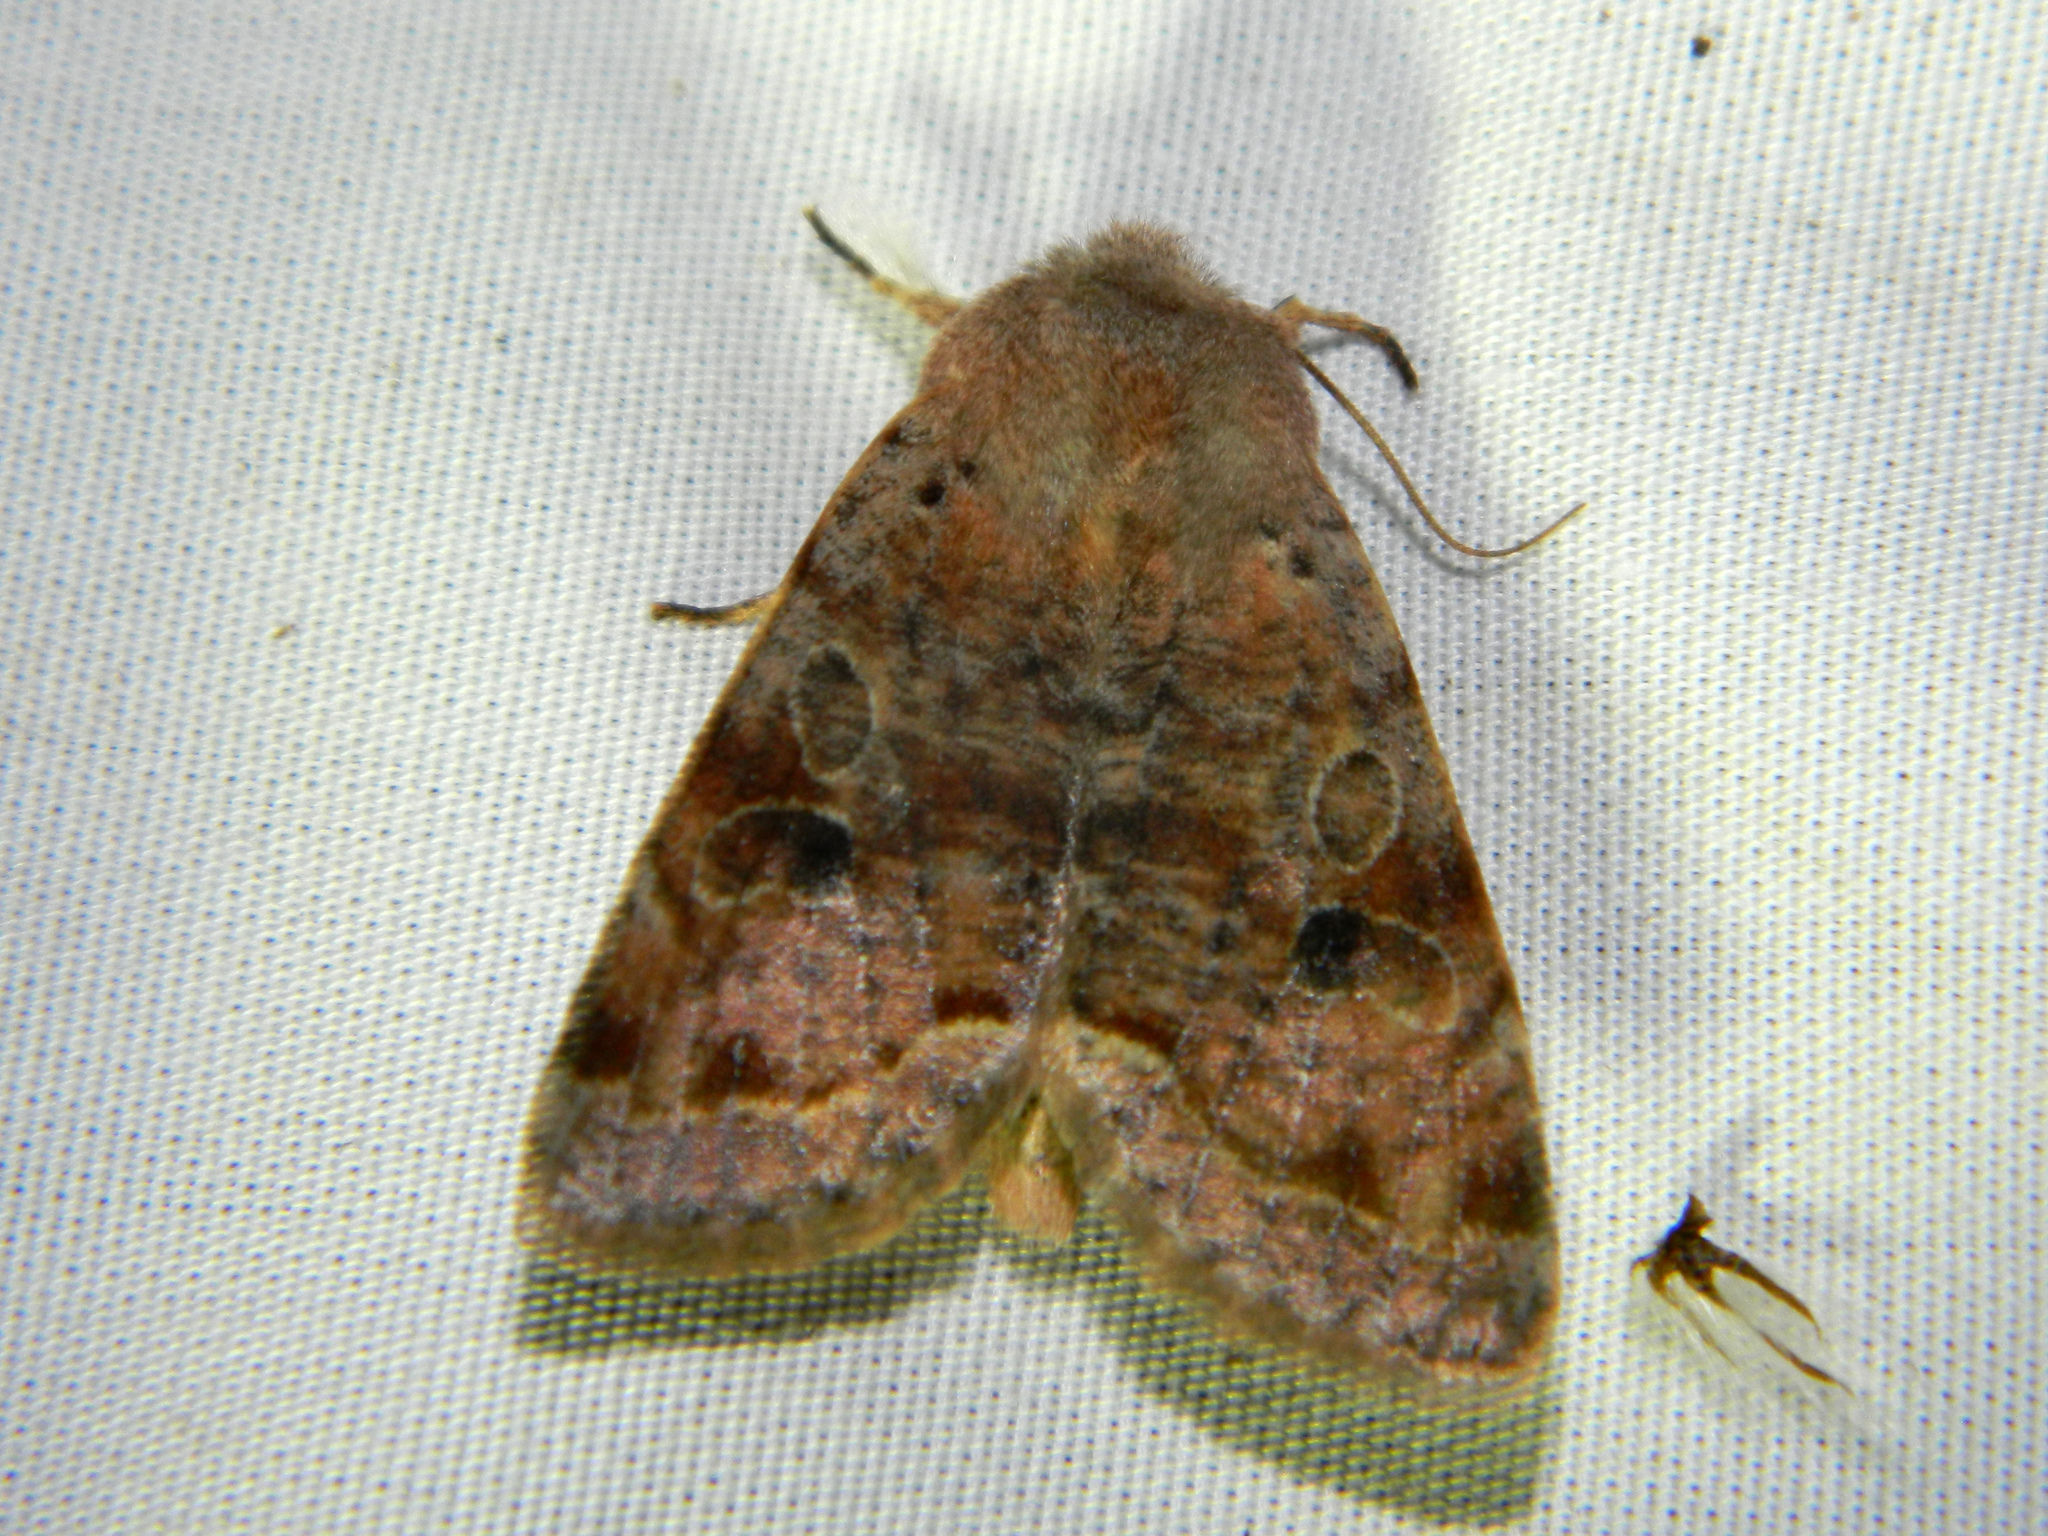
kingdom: Animalia
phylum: Arthropoda
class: Insecta
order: Lepidoptera
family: Noctuidae
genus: Orthosia
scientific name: Orthosia hibisci
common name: Green fruitworm
